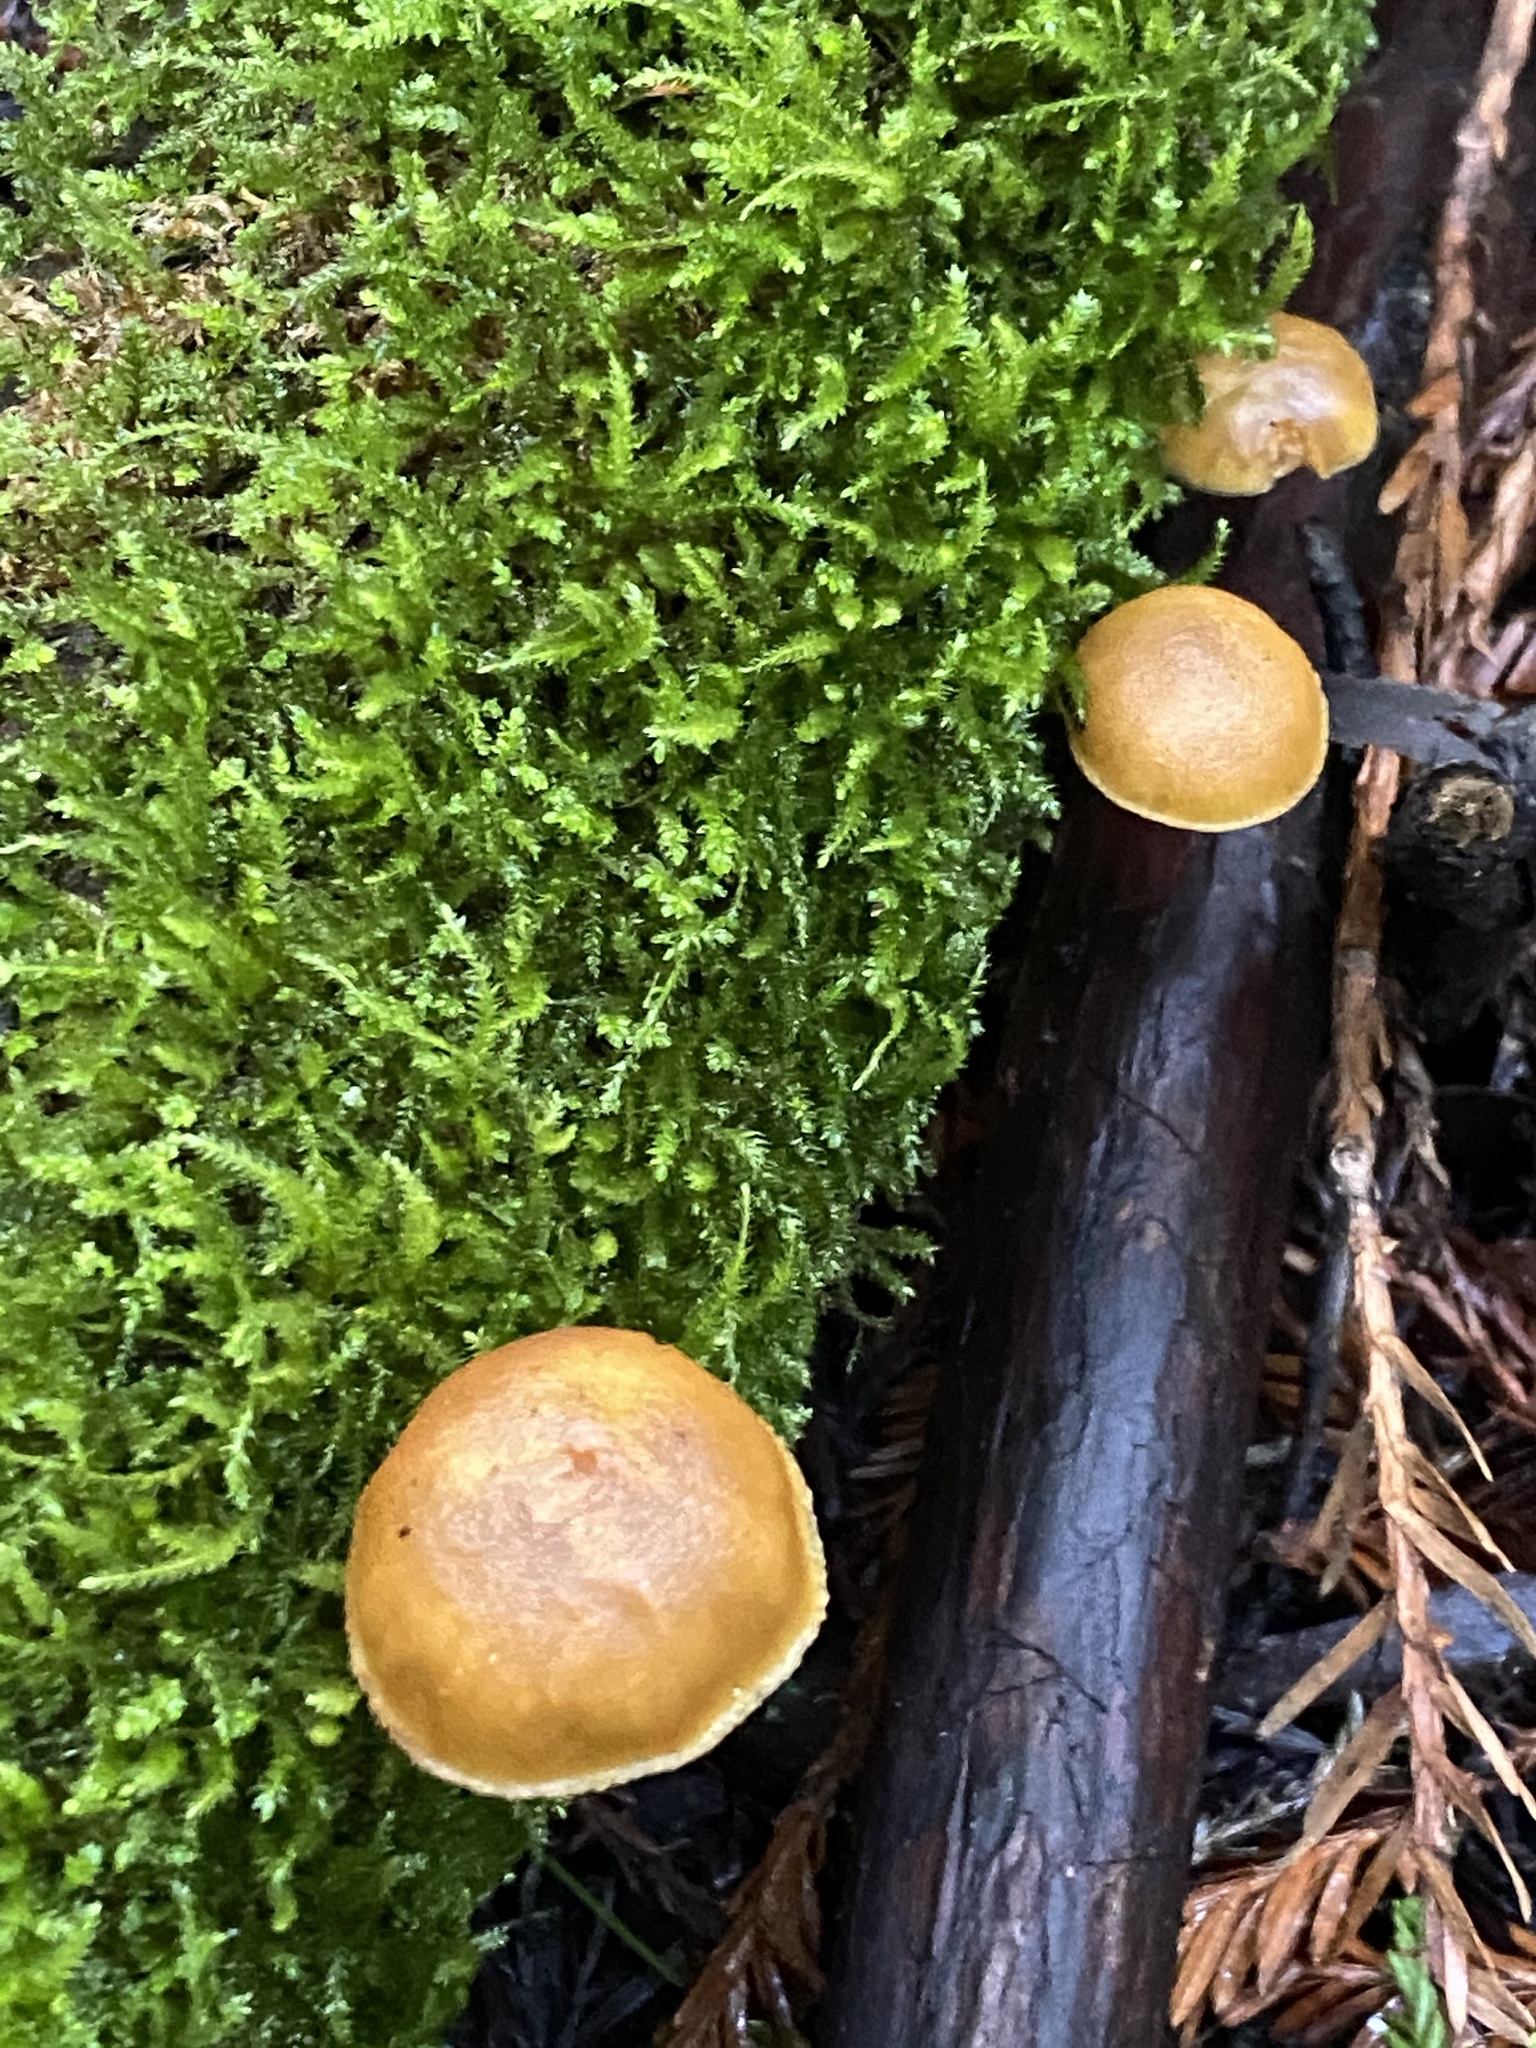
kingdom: Fungi
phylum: Basidiomycota
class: Agaricomycetes
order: Agaricales
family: Hymenogastraceae
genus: Galerina
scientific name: Galerina marginata
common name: Funeral bell
